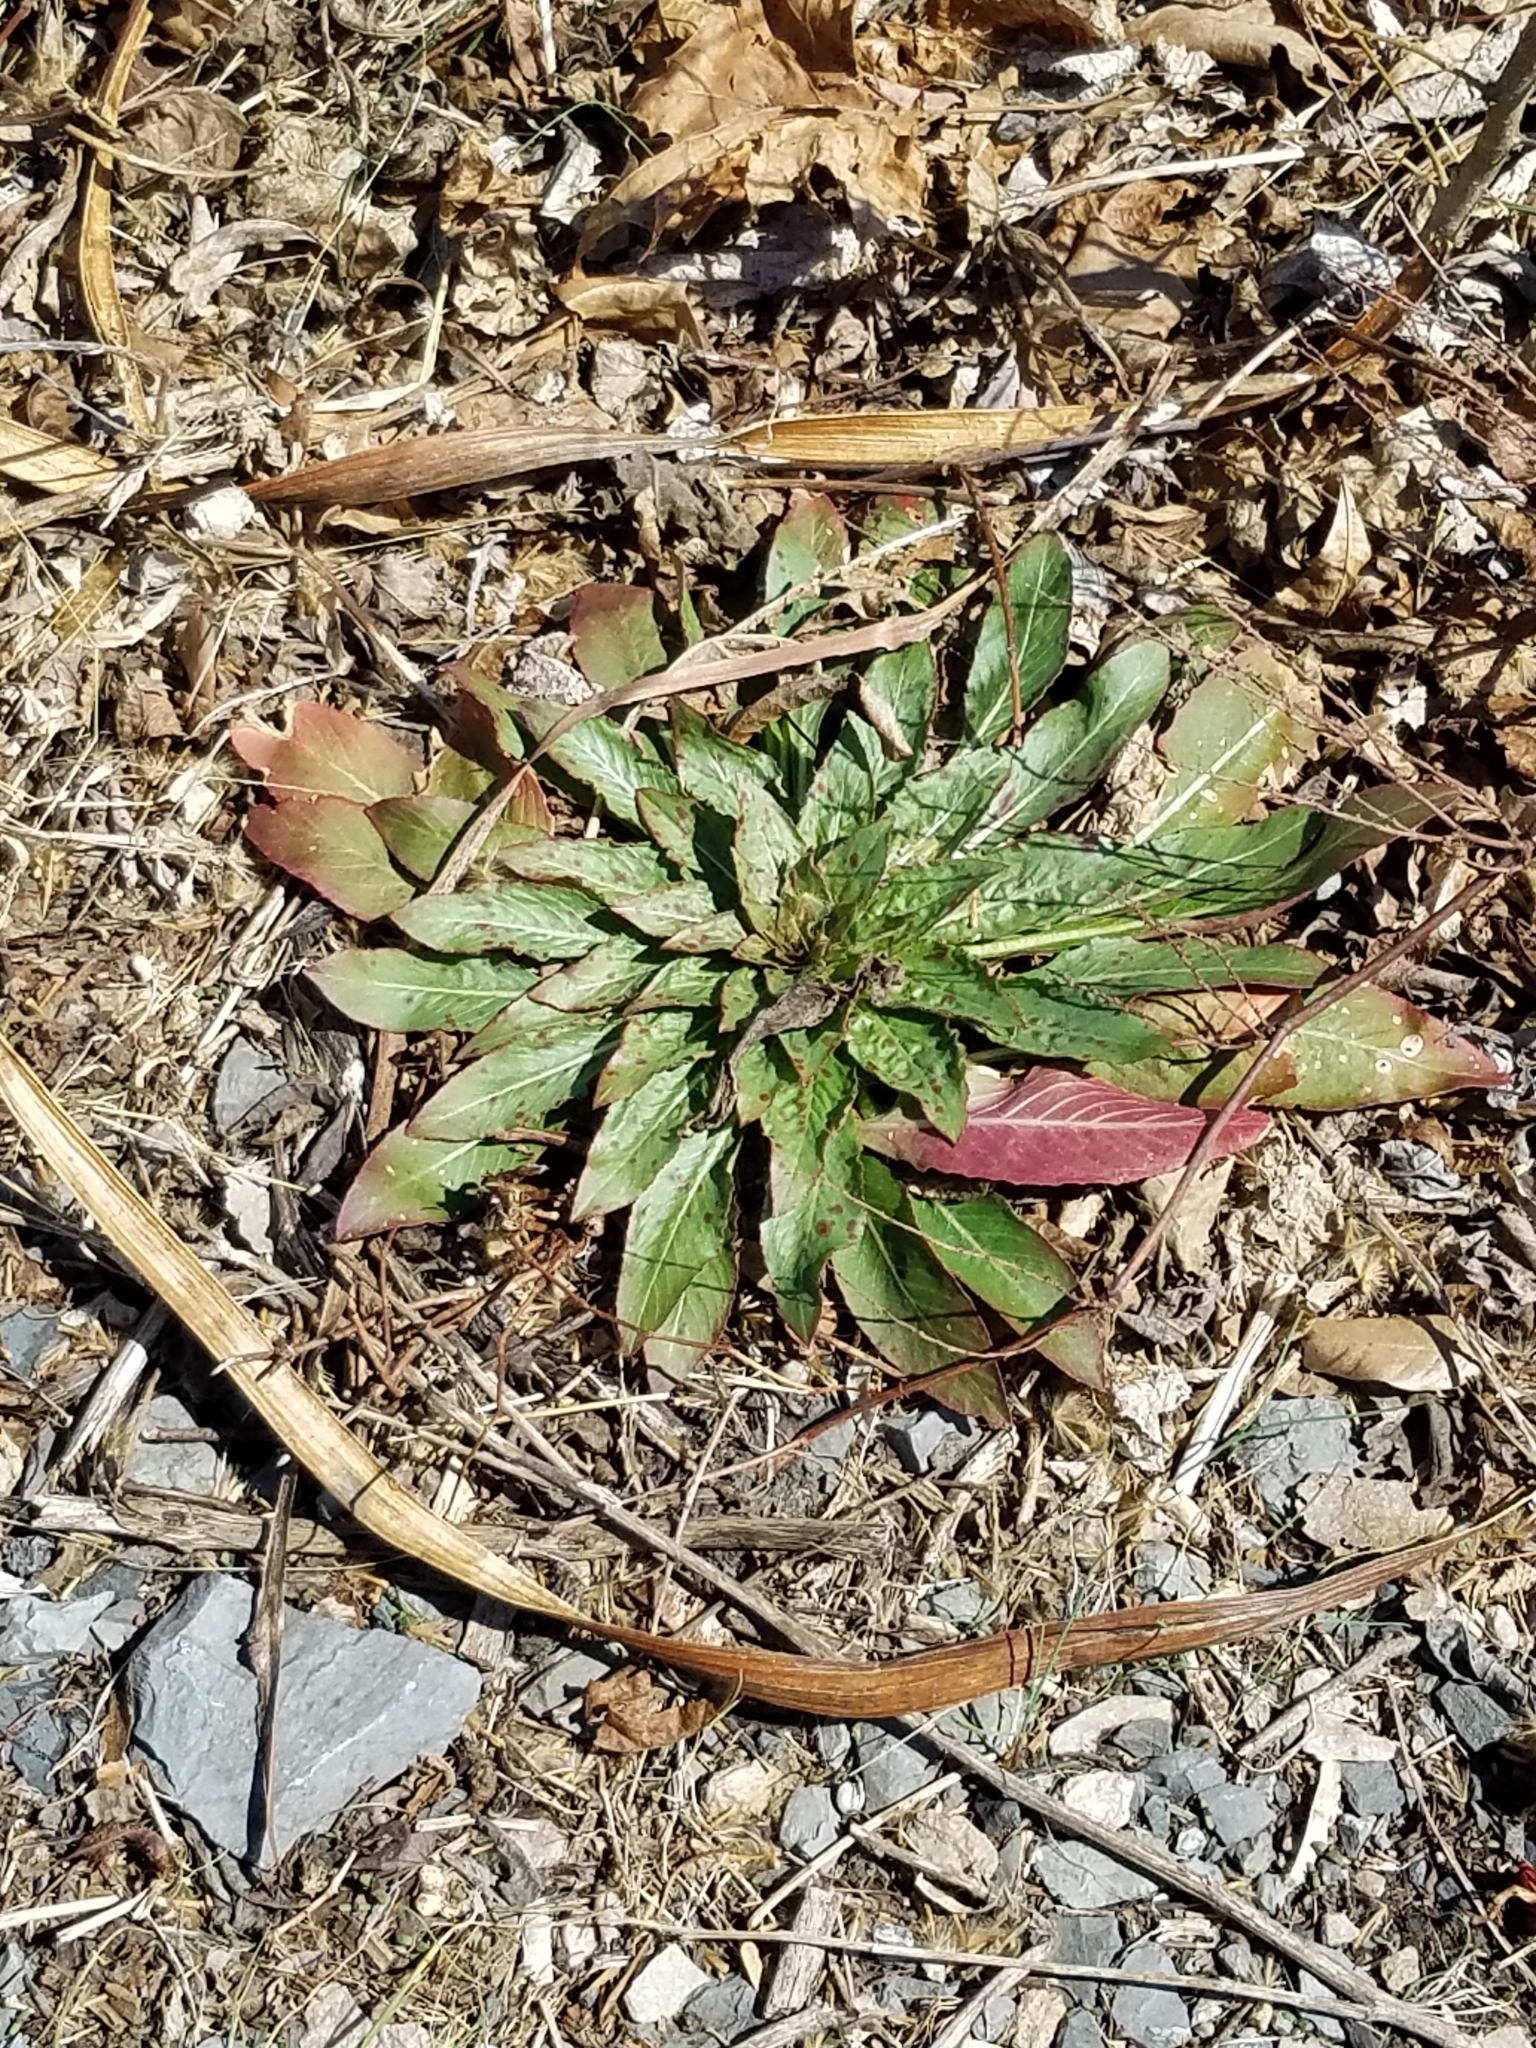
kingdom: Plantae
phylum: Tracheophyta
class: Magnoliopsida
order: Myrtales
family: Onagraceae
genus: Oenothera
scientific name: Oenothera biennis
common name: Common evening-primrose
